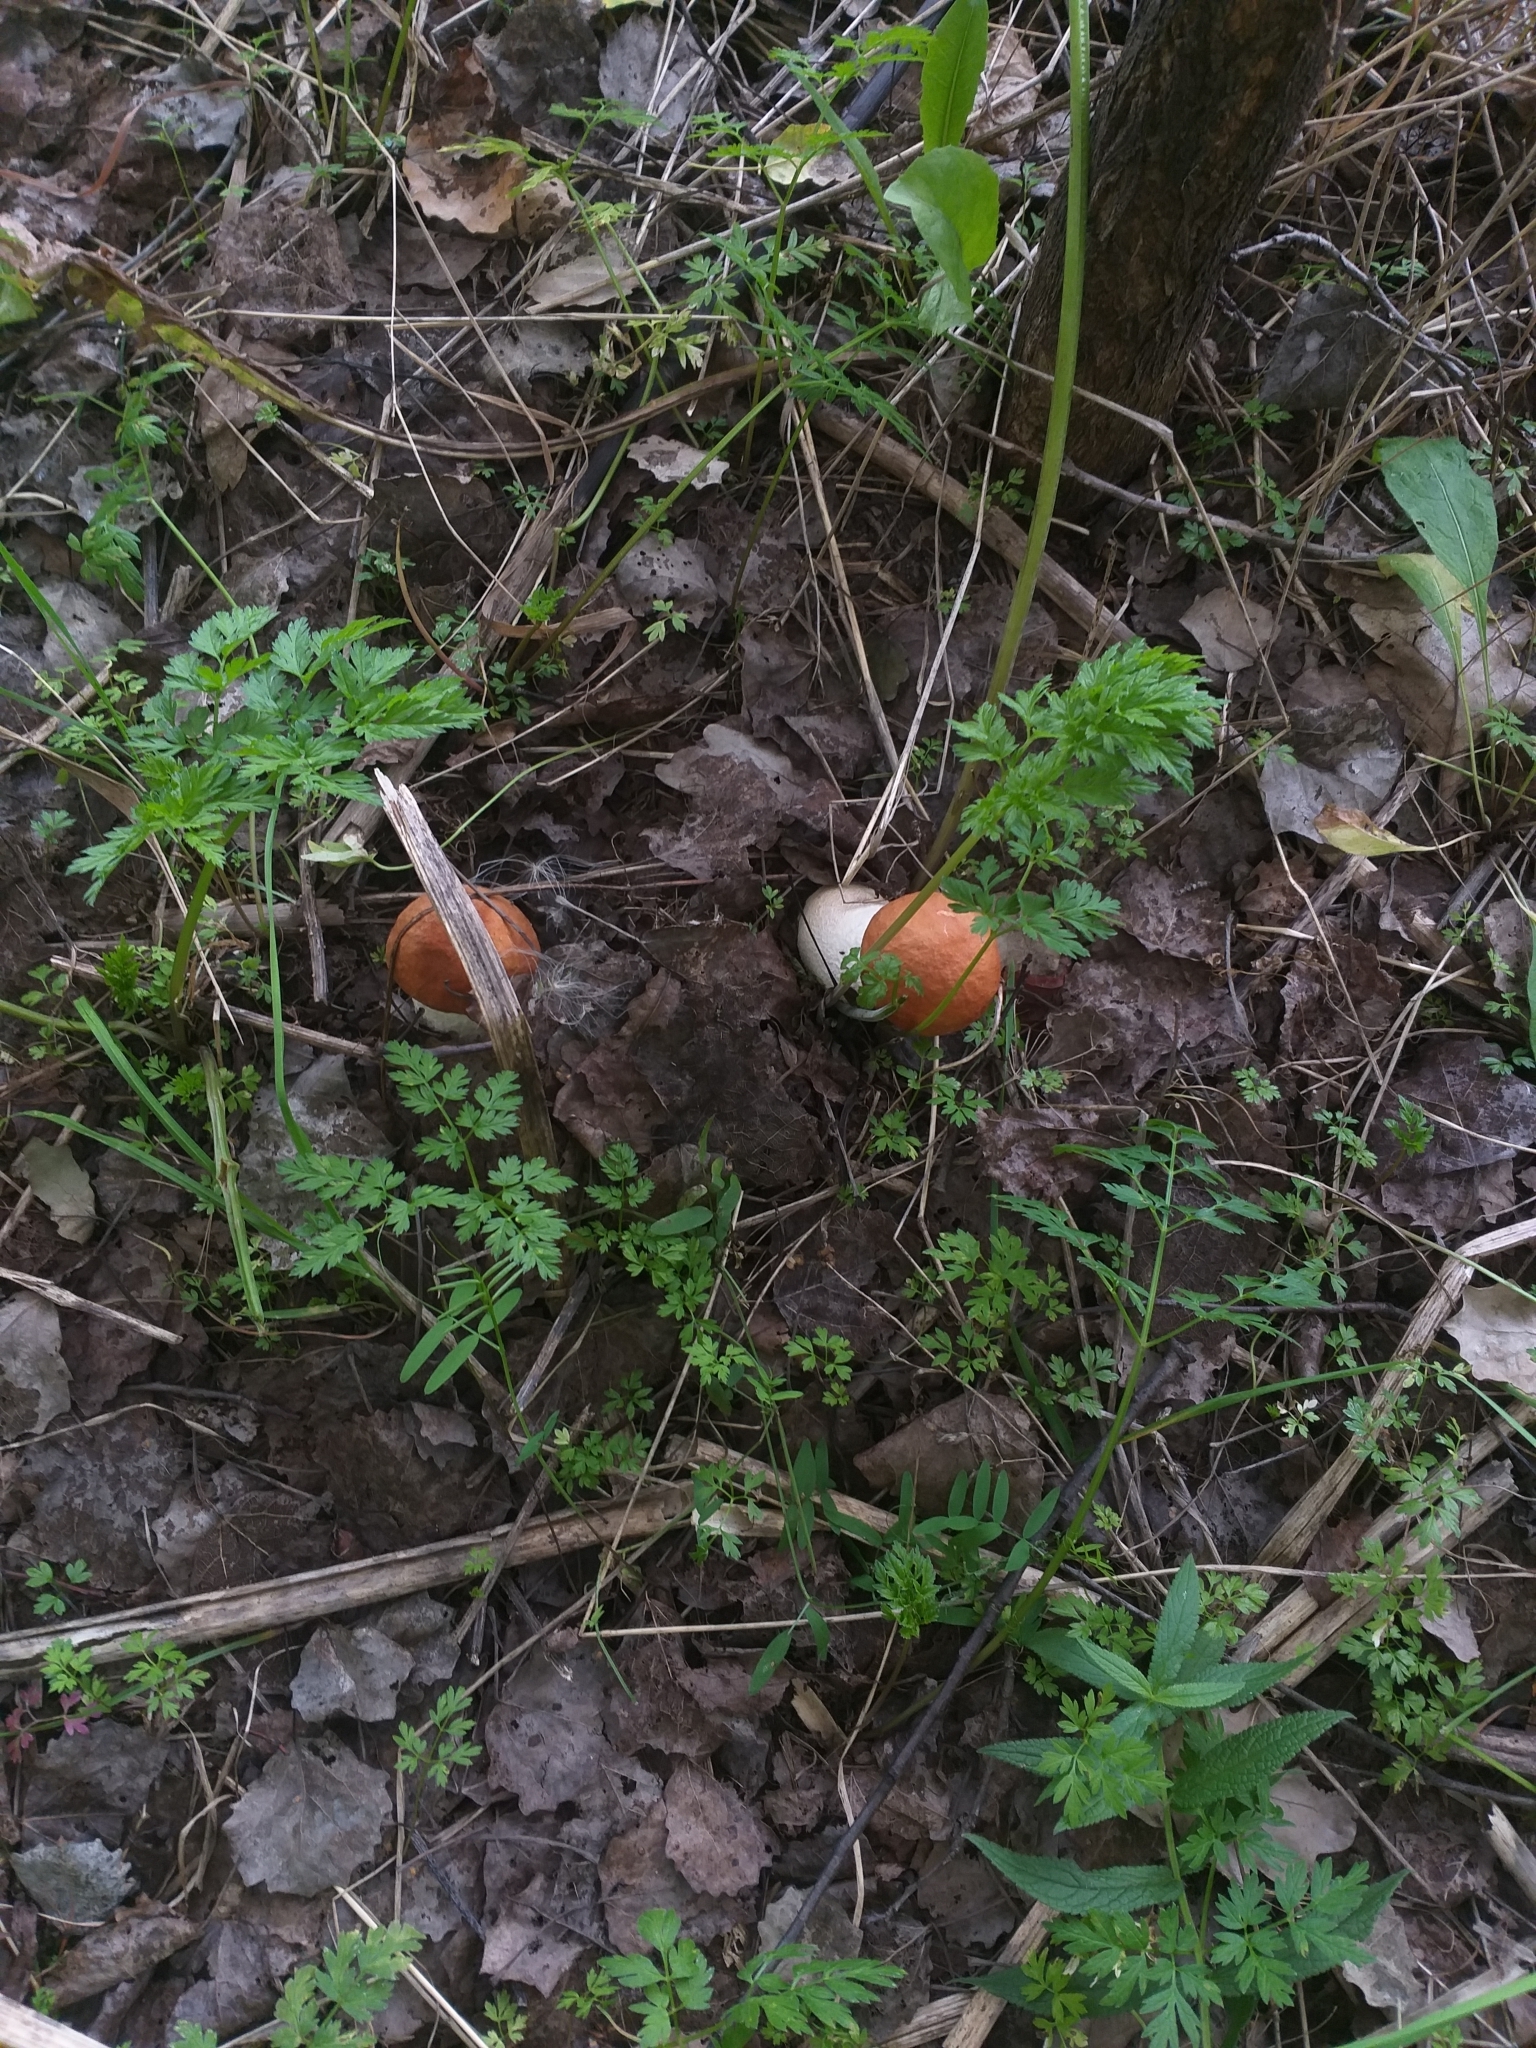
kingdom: Fungi
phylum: Basidiomycota
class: Agaricomycetes
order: Boletales
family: Boletaceae
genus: Leccinum
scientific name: Leccinum albostipitatum
